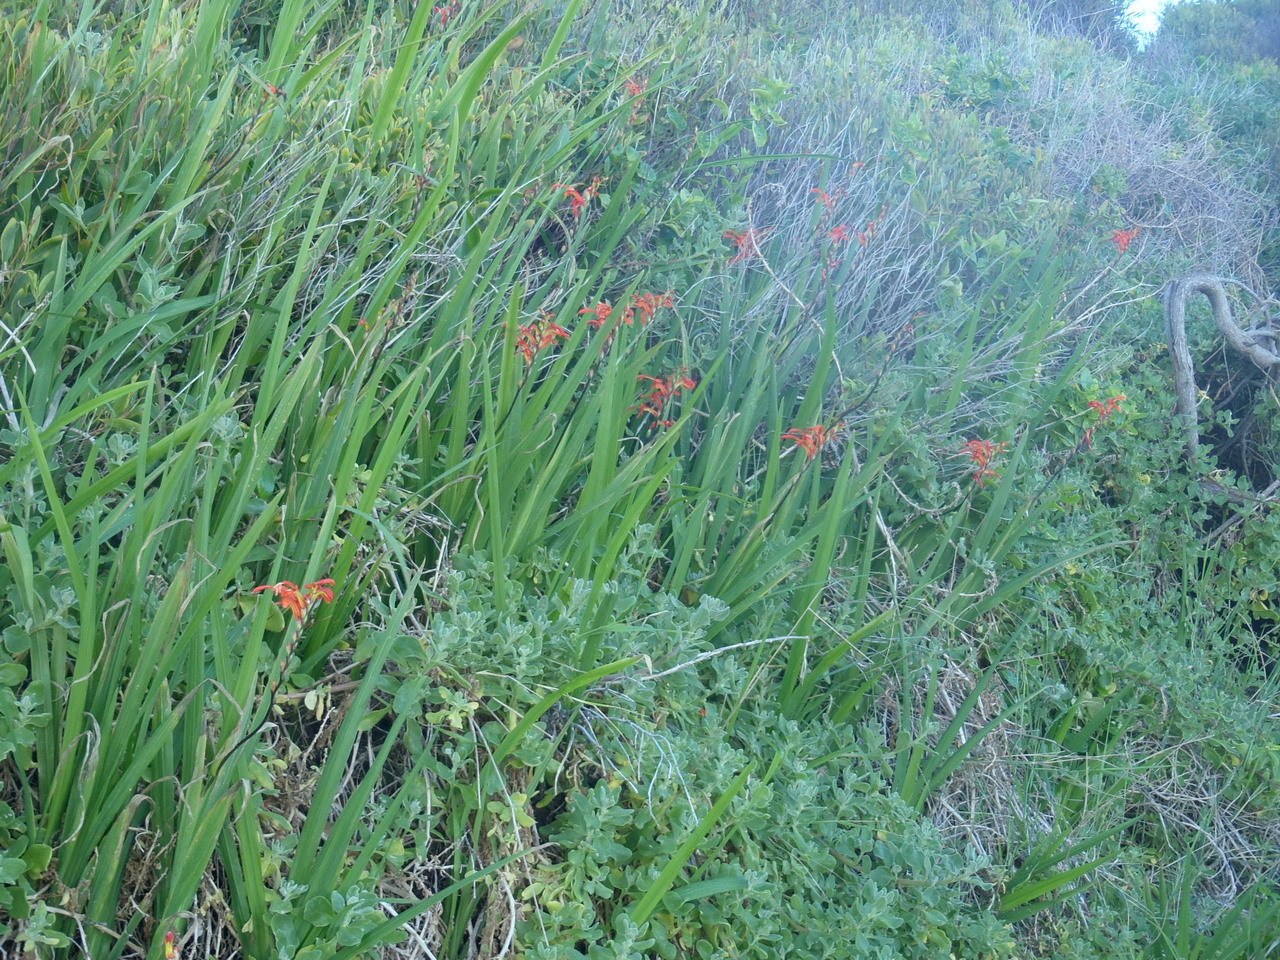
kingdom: Plantae
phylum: Tracheophyta
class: Liliopsida
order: Asparagales
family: Iridaceae
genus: Chasmanthe
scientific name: Chasmanthe aethiopica
